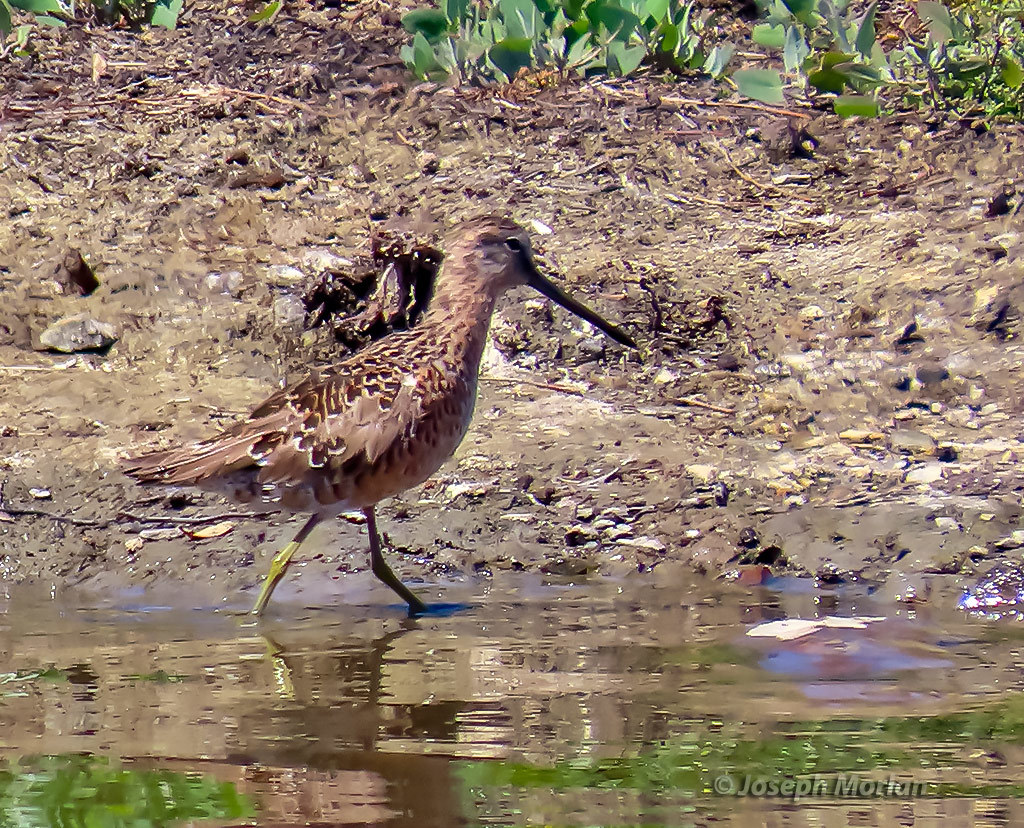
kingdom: Animalia
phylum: Chordata
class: Aves
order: Charadriiformes
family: Scolopacidae
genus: Limnodromus
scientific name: Limnodromus scolopaceus
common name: Long-billed dowitcher
